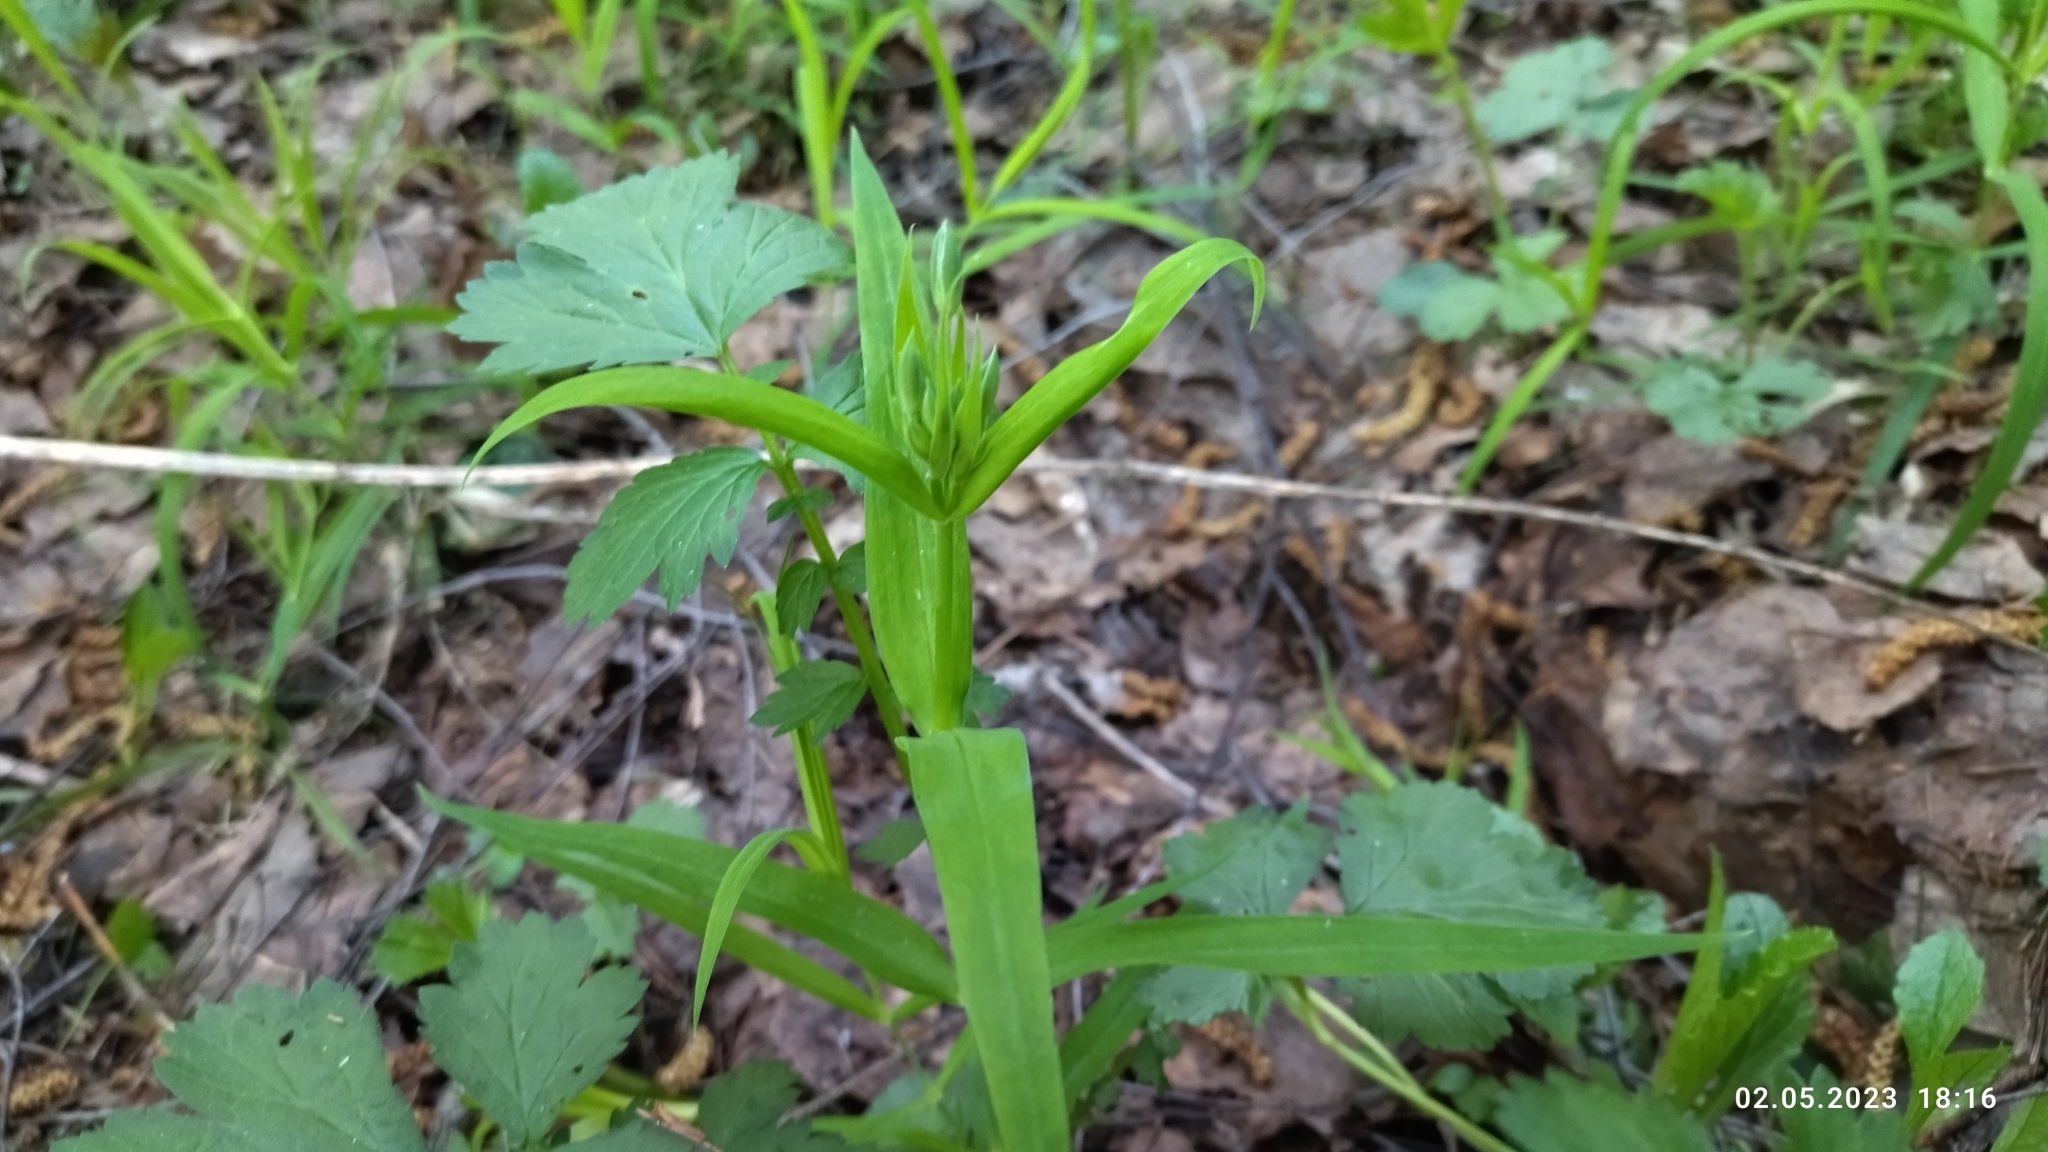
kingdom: Plantae
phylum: Tracheophyta
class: Magnoliopsida
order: Caryophyllales
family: Caryophyllaceae
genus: Rabelera
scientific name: Rabelera holostea
